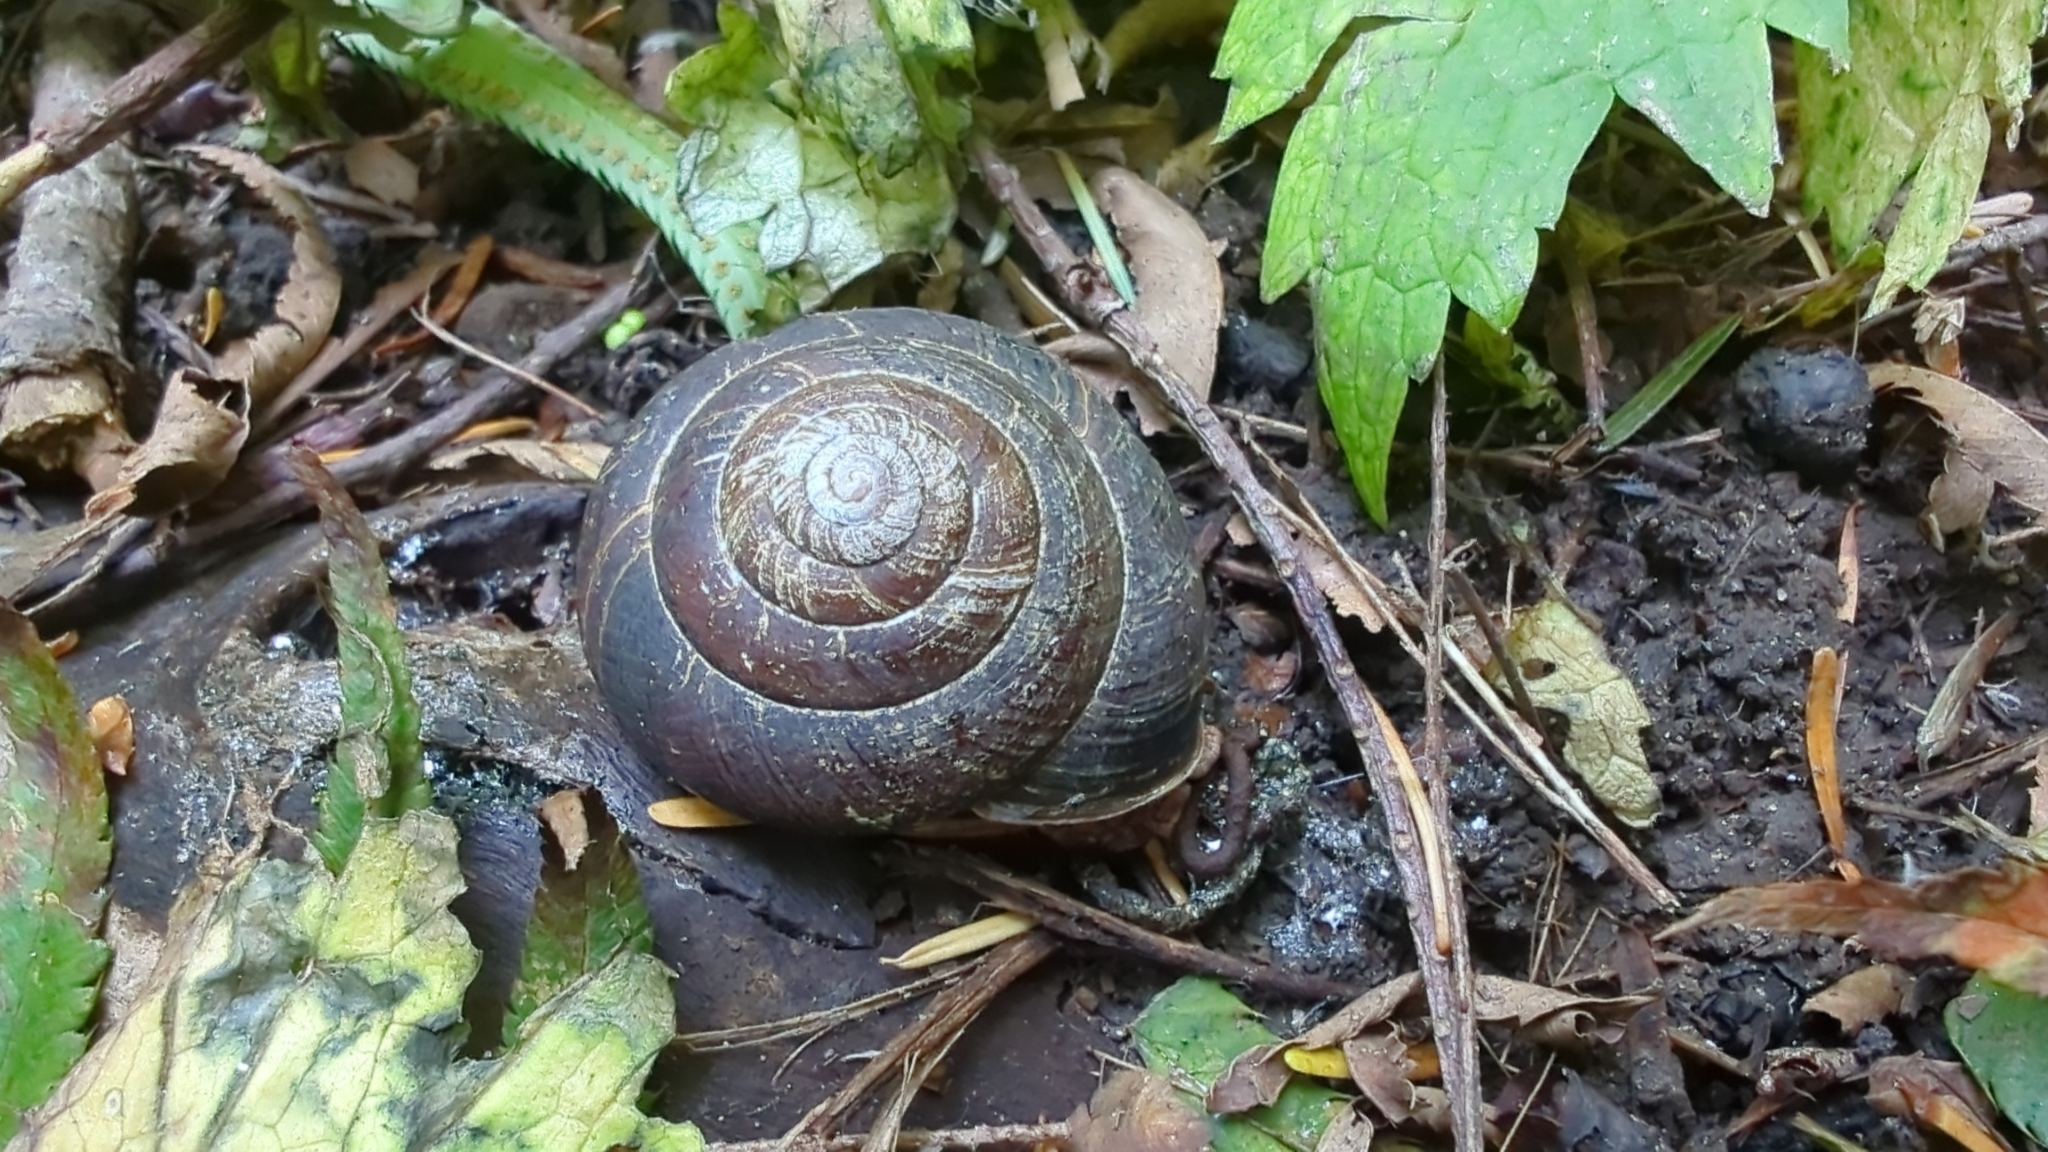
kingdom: Animalia
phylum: Mollusca
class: Gastropoda
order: Stylommatophora
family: Xanthonychidae
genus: Monadenia
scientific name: Monadenia fidelis
